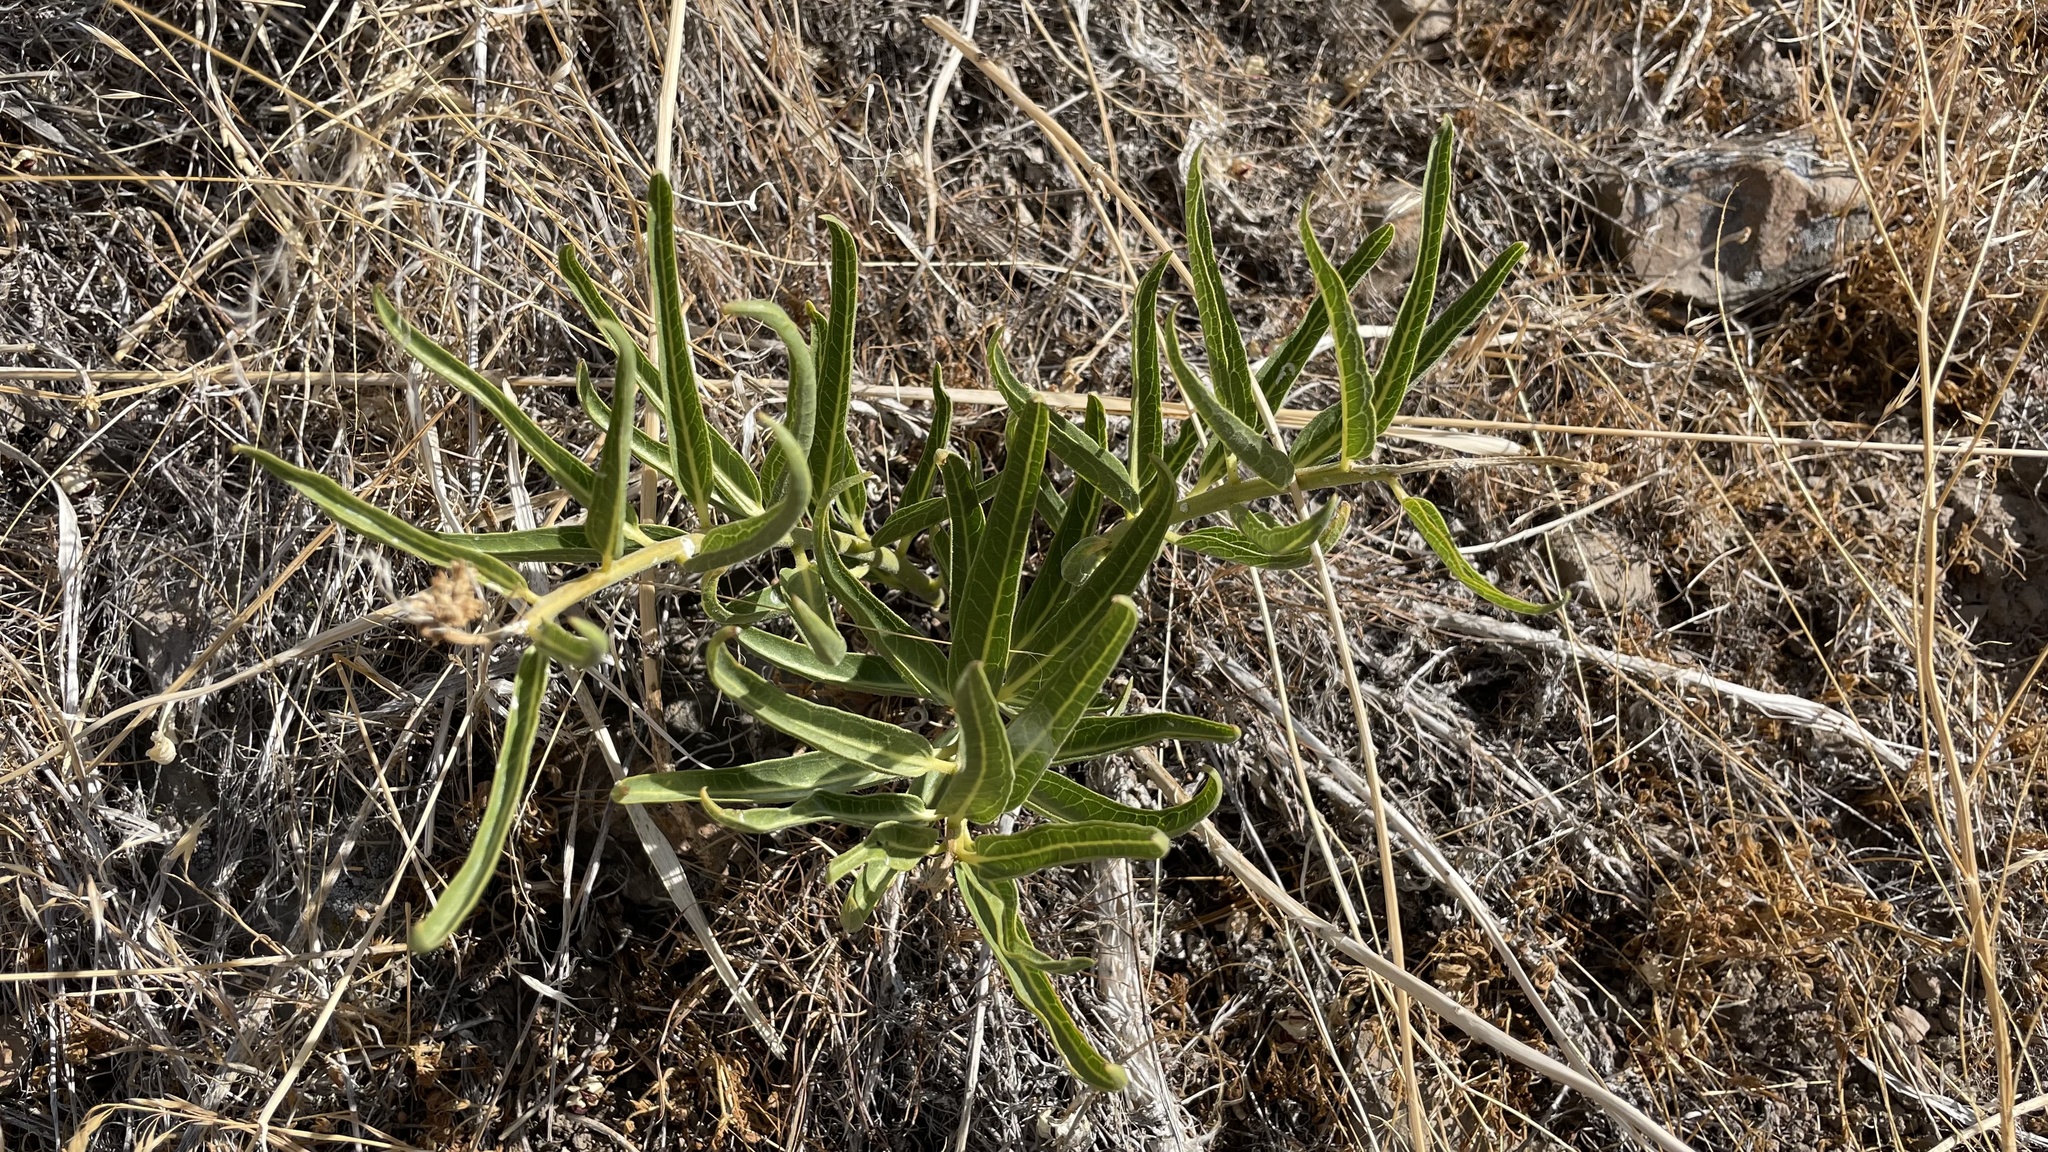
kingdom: Plantae
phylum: Tracheophyta
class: Magnoliopsida
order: Gentianales
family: Apocynaceae
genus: Asclepias
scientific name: Asclepias asperula
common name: Antelope horns
